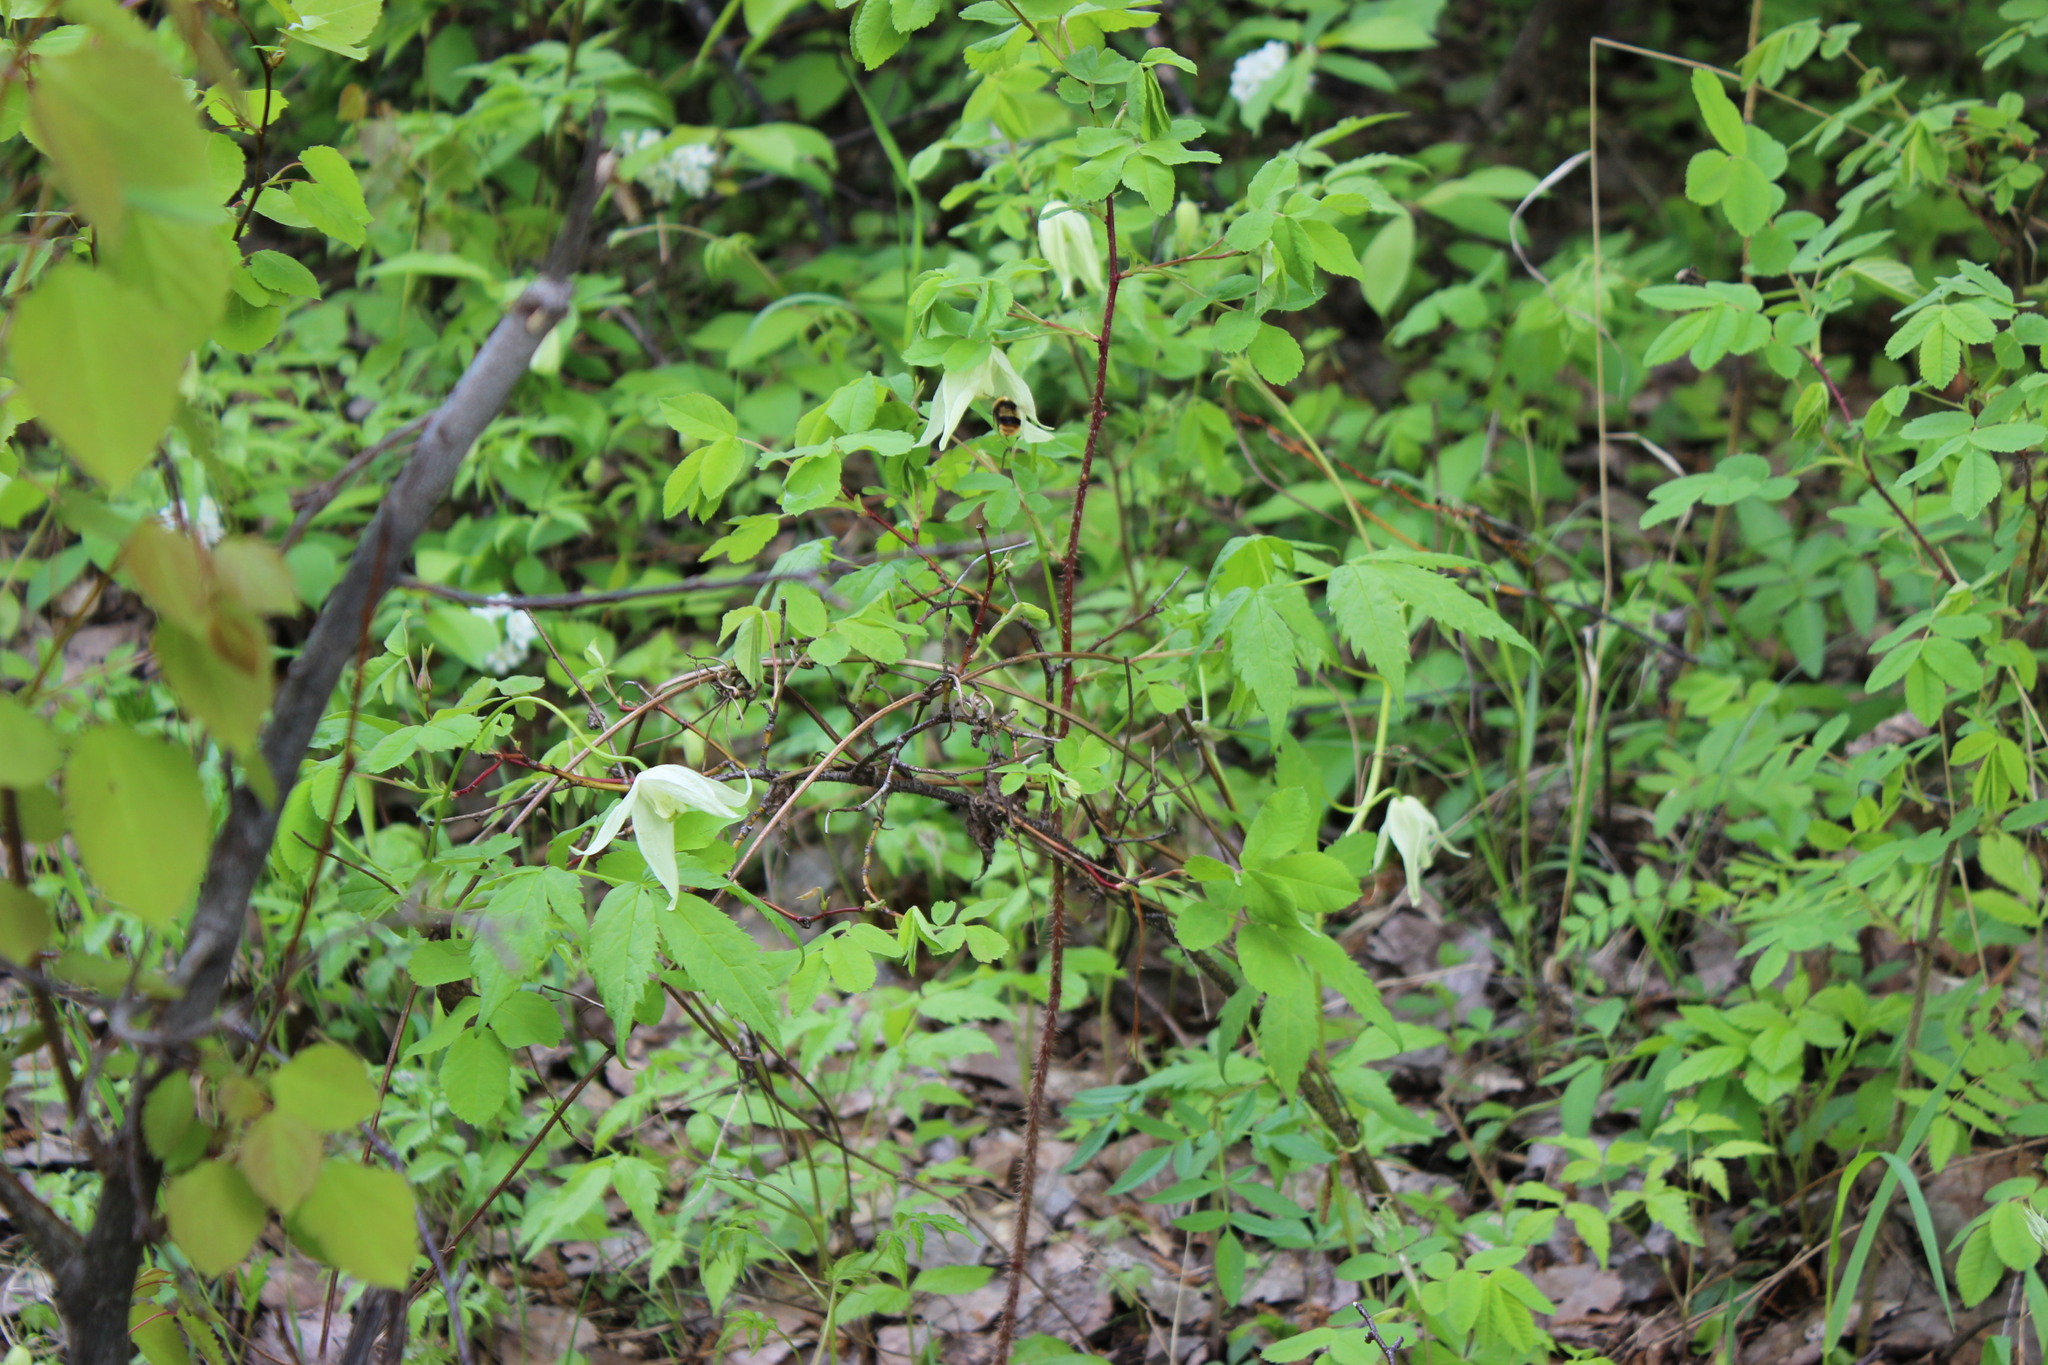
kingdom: Plantae
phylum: Tracheophyta
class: Magnoliopsida
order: Ranunculales
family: Ranunculaceae
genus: Clematis
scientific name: Clematis sibirica
